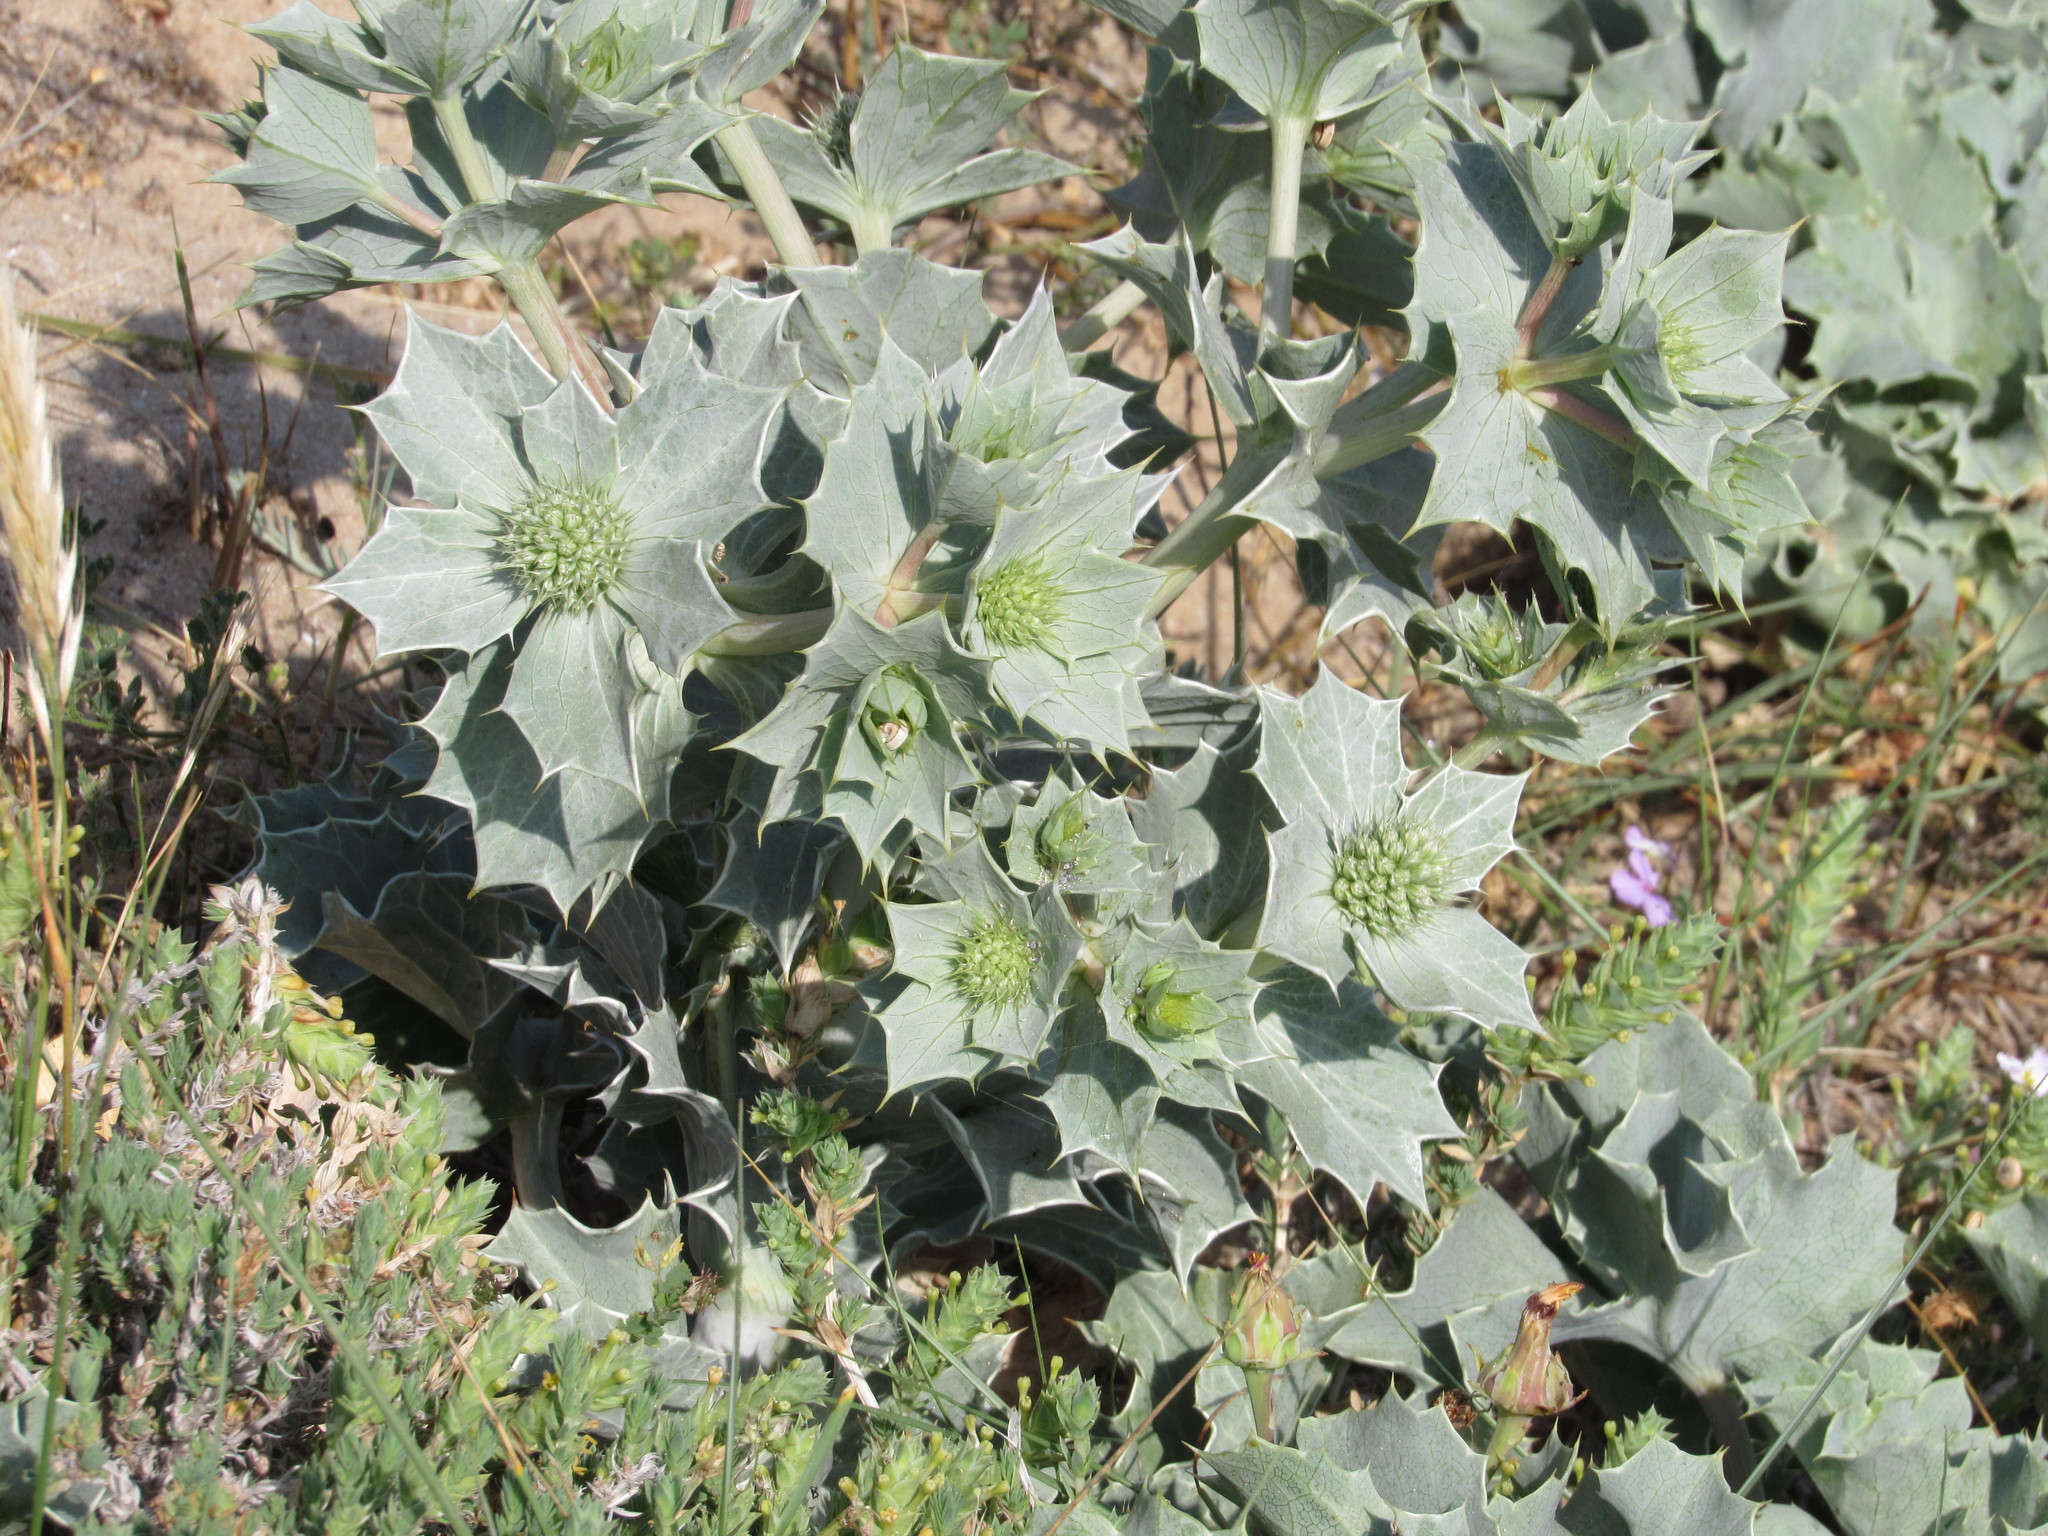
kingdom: Plantae
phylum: Tracheophyta
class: Magnoliopsida
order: Apiales
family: Apiaceae
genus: Eryngium
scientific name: Eryngium maritimum
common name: Sea-holly
